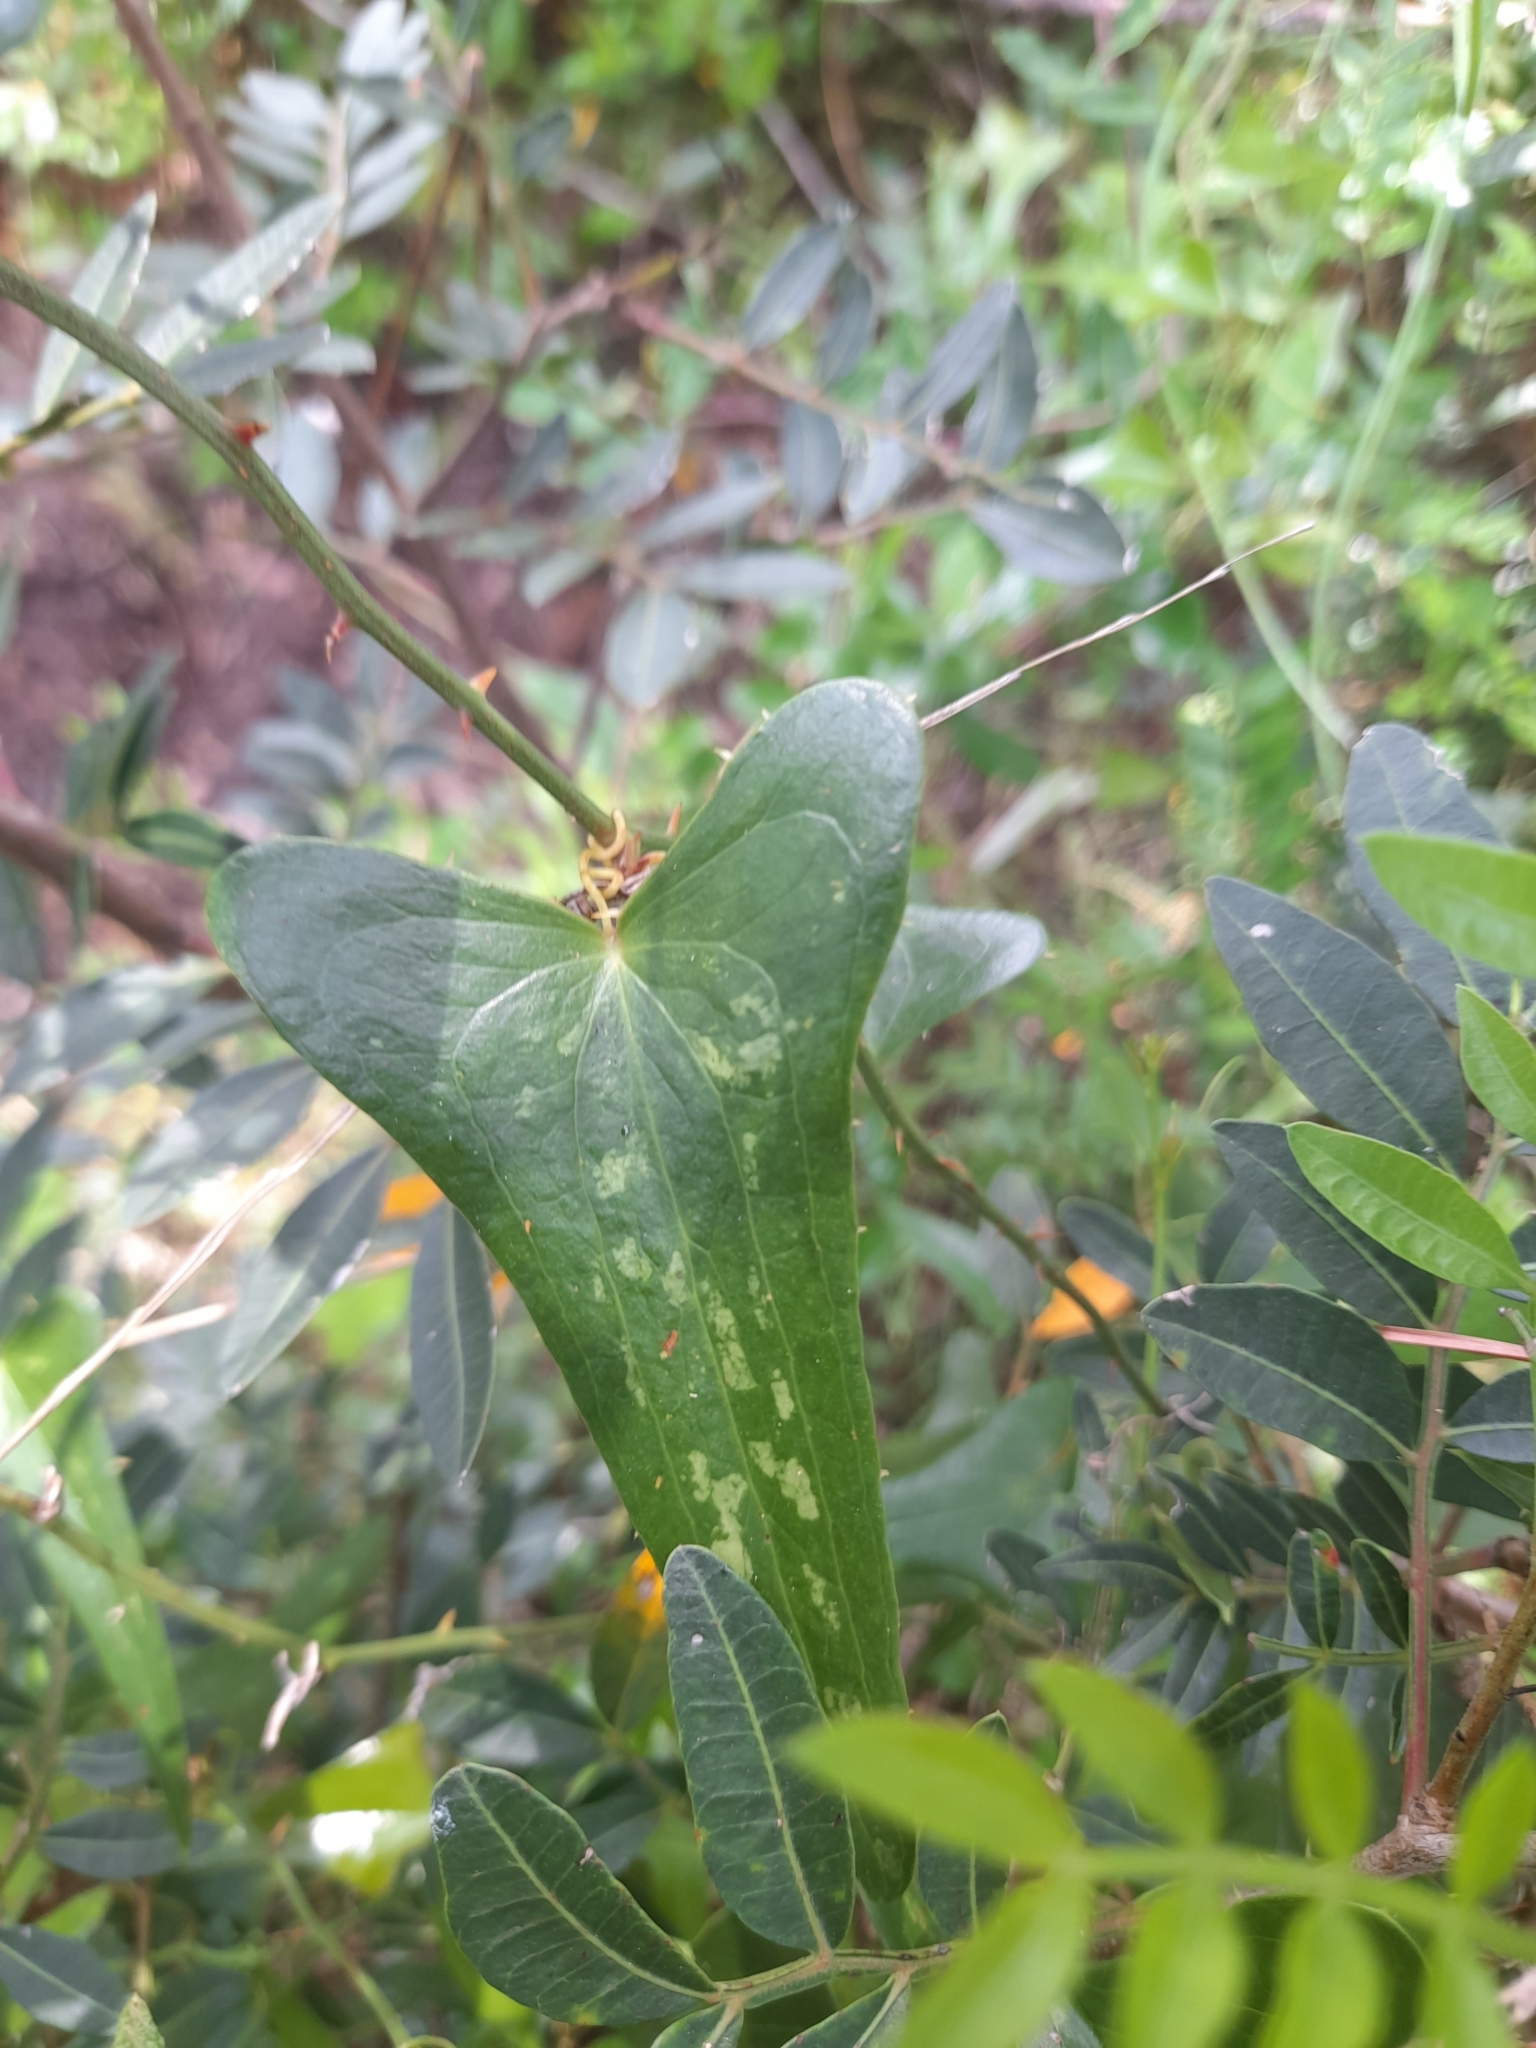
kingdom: Plantae
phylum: Tracheophyta
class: Liliopsida
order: Liliales
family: Smilacaceae
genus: Smilax
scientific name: Smilax aspera
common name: Common smilax
